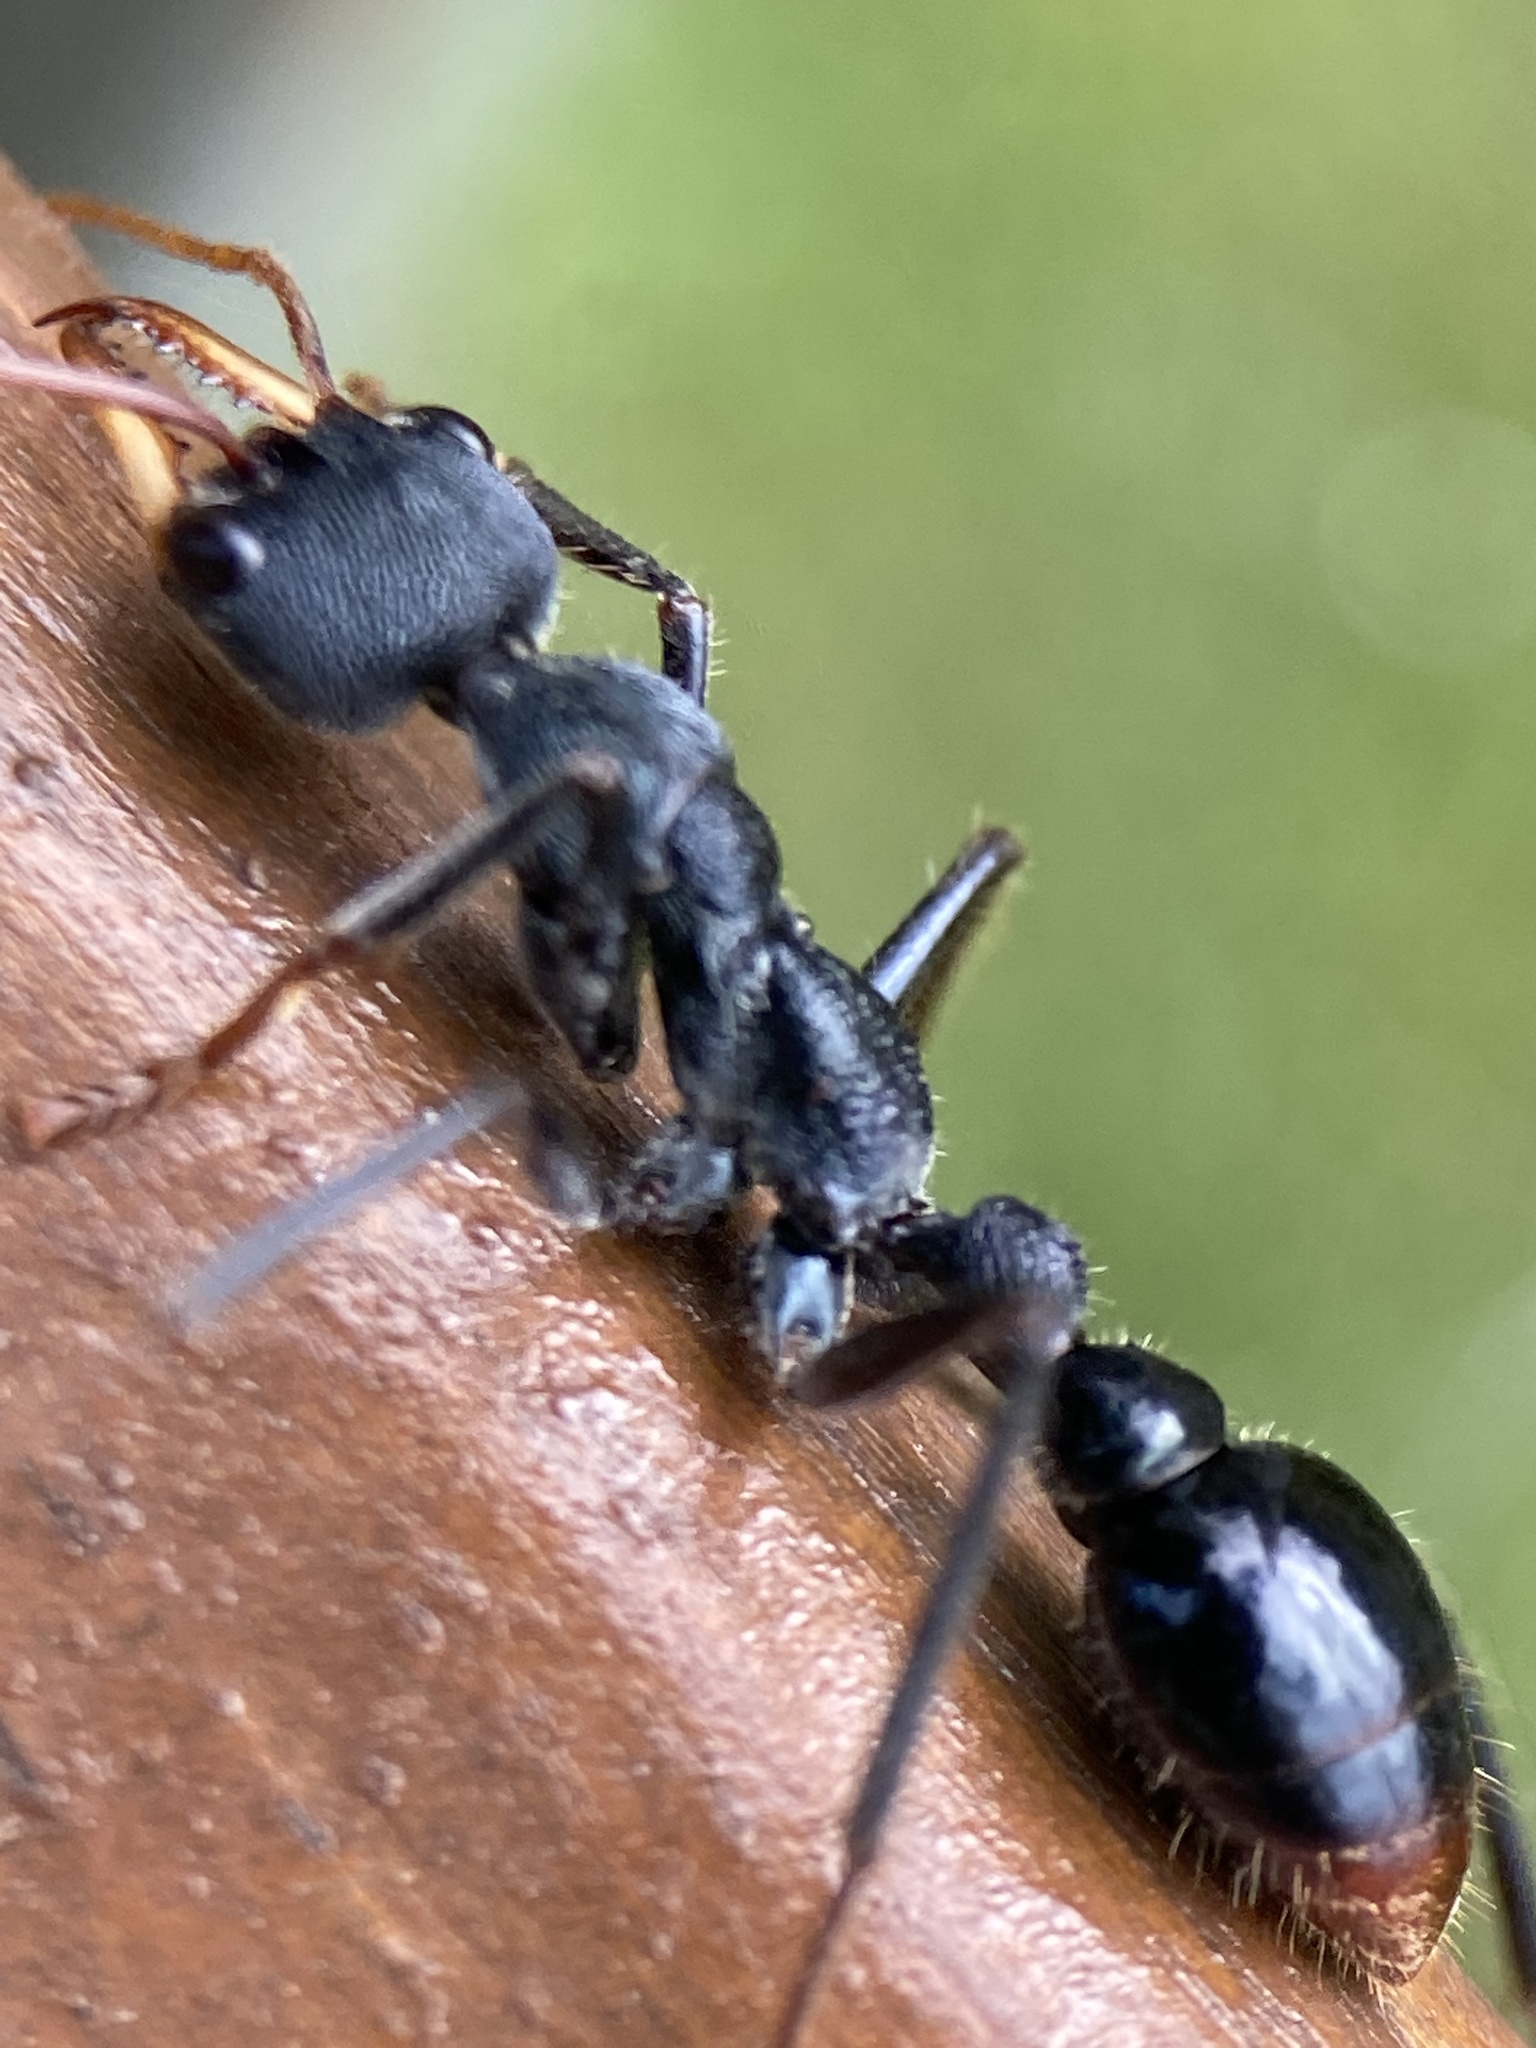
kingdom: Animalia
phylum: Arthropoda
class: Insecta
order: Hymenoptera
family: Formicidae
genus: Myrmecia
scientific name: Myrmecia tarsata
